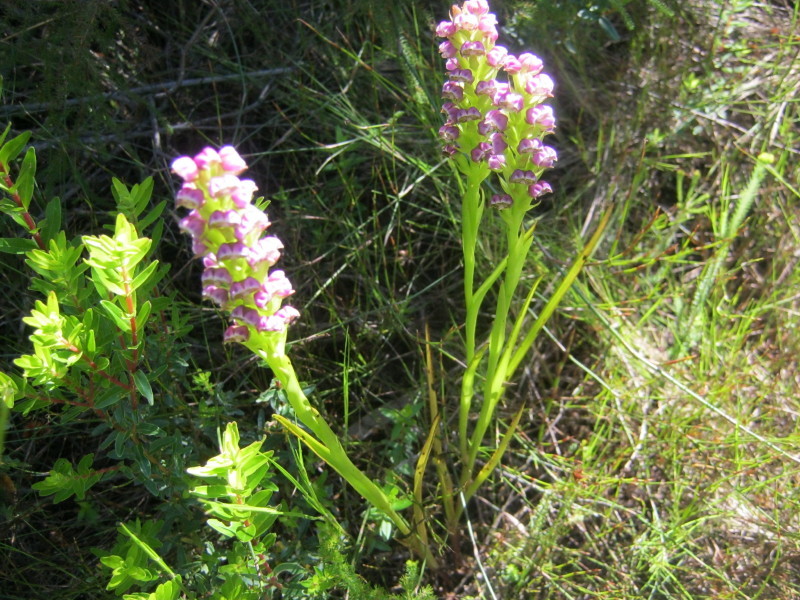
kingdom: Plantae
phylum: Tracheophyta
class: Liliopsida
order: Asparagales
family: Orchidaceae
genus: Evotella
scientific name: Evotella carnosa
